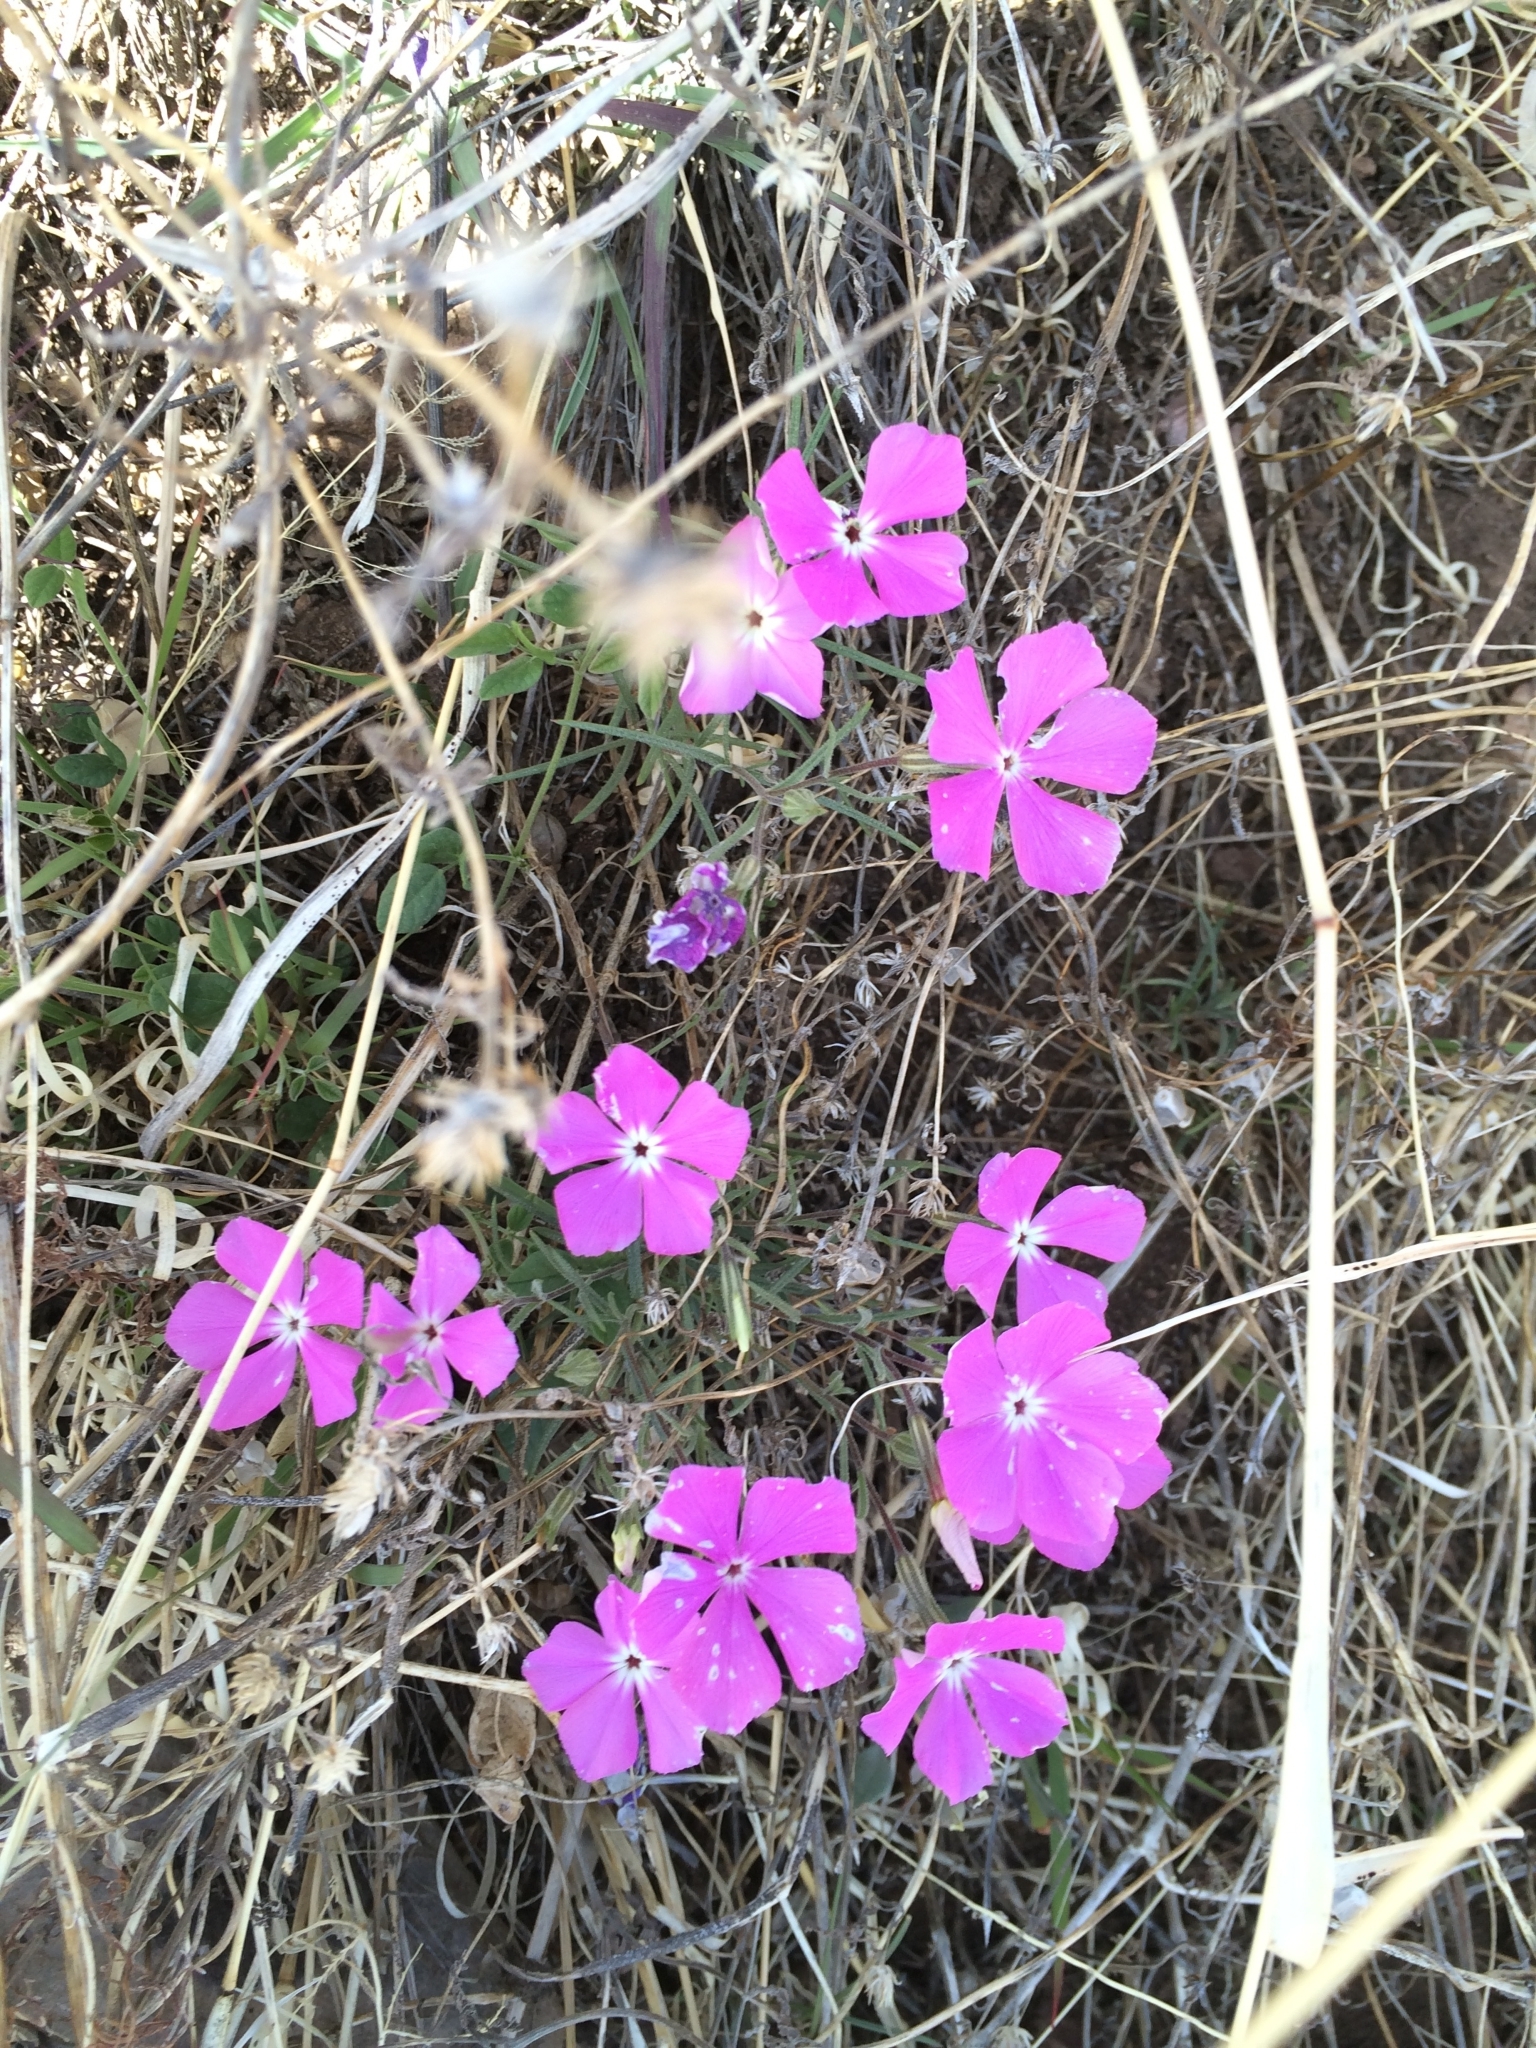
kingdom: Plantae
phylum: Tracheophyta
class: Magnoliopsida
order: Ericales
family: Polemoniaceae
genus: Phlox
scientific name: Phlox nana
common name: Santa fe phlox
